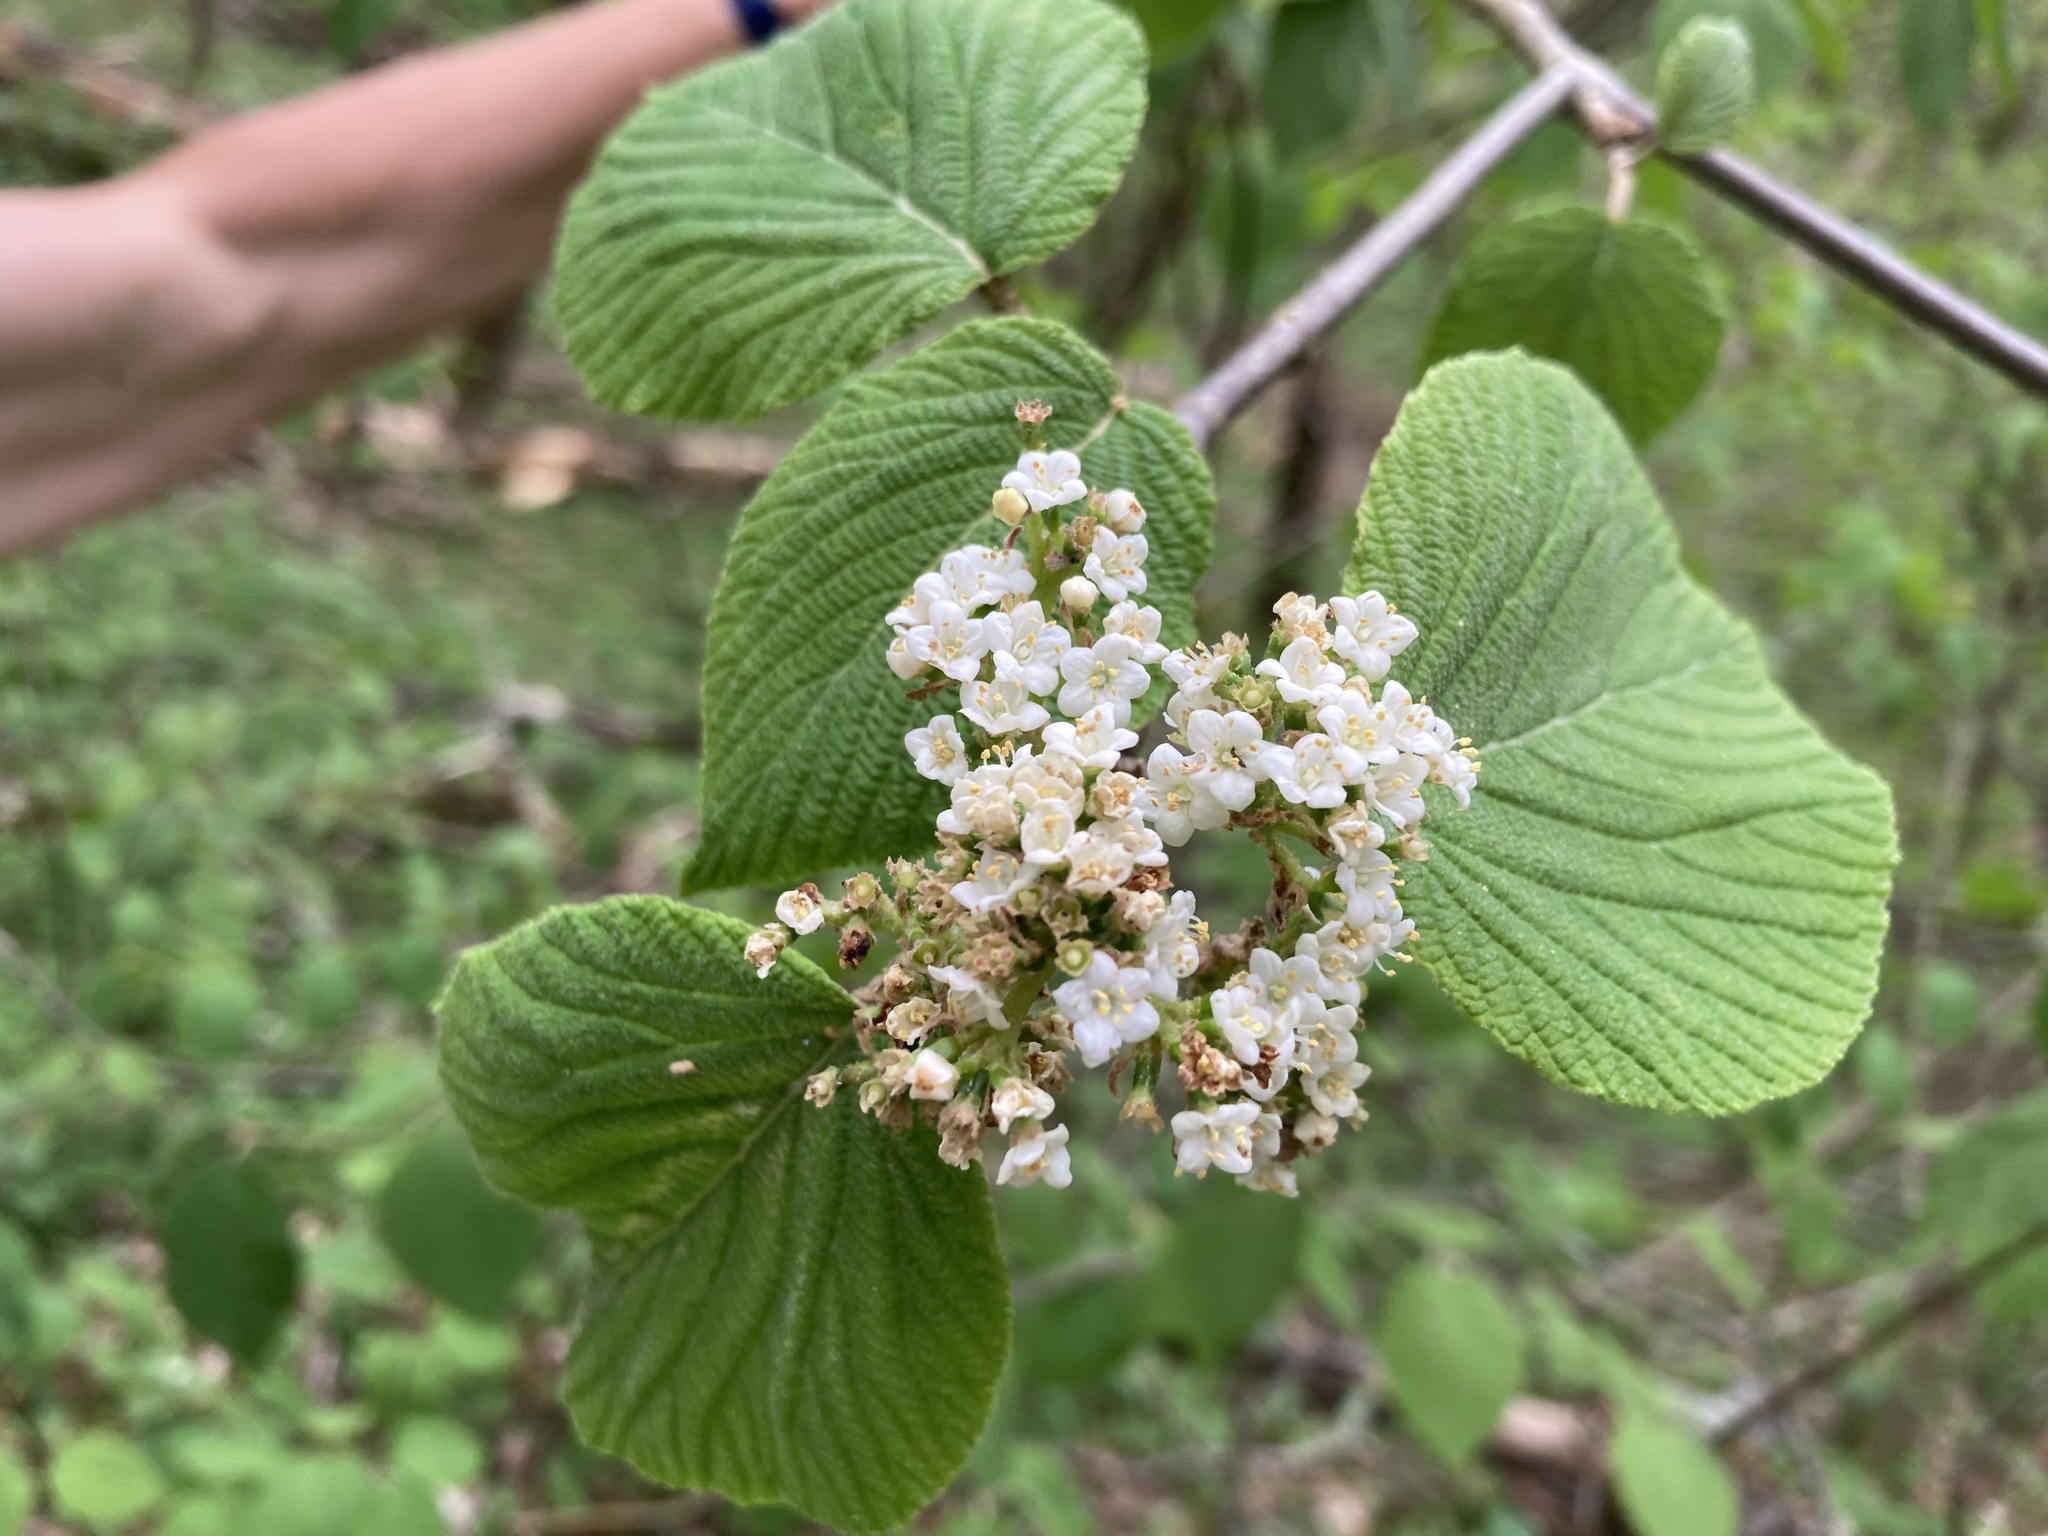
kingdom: Plantae
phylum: Tracheophyta
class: Magnoliopsida
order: Dipsacales
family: Viburnaceae
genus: Viburnum
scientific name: Viburnum lantanoides
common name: Hobblebush
